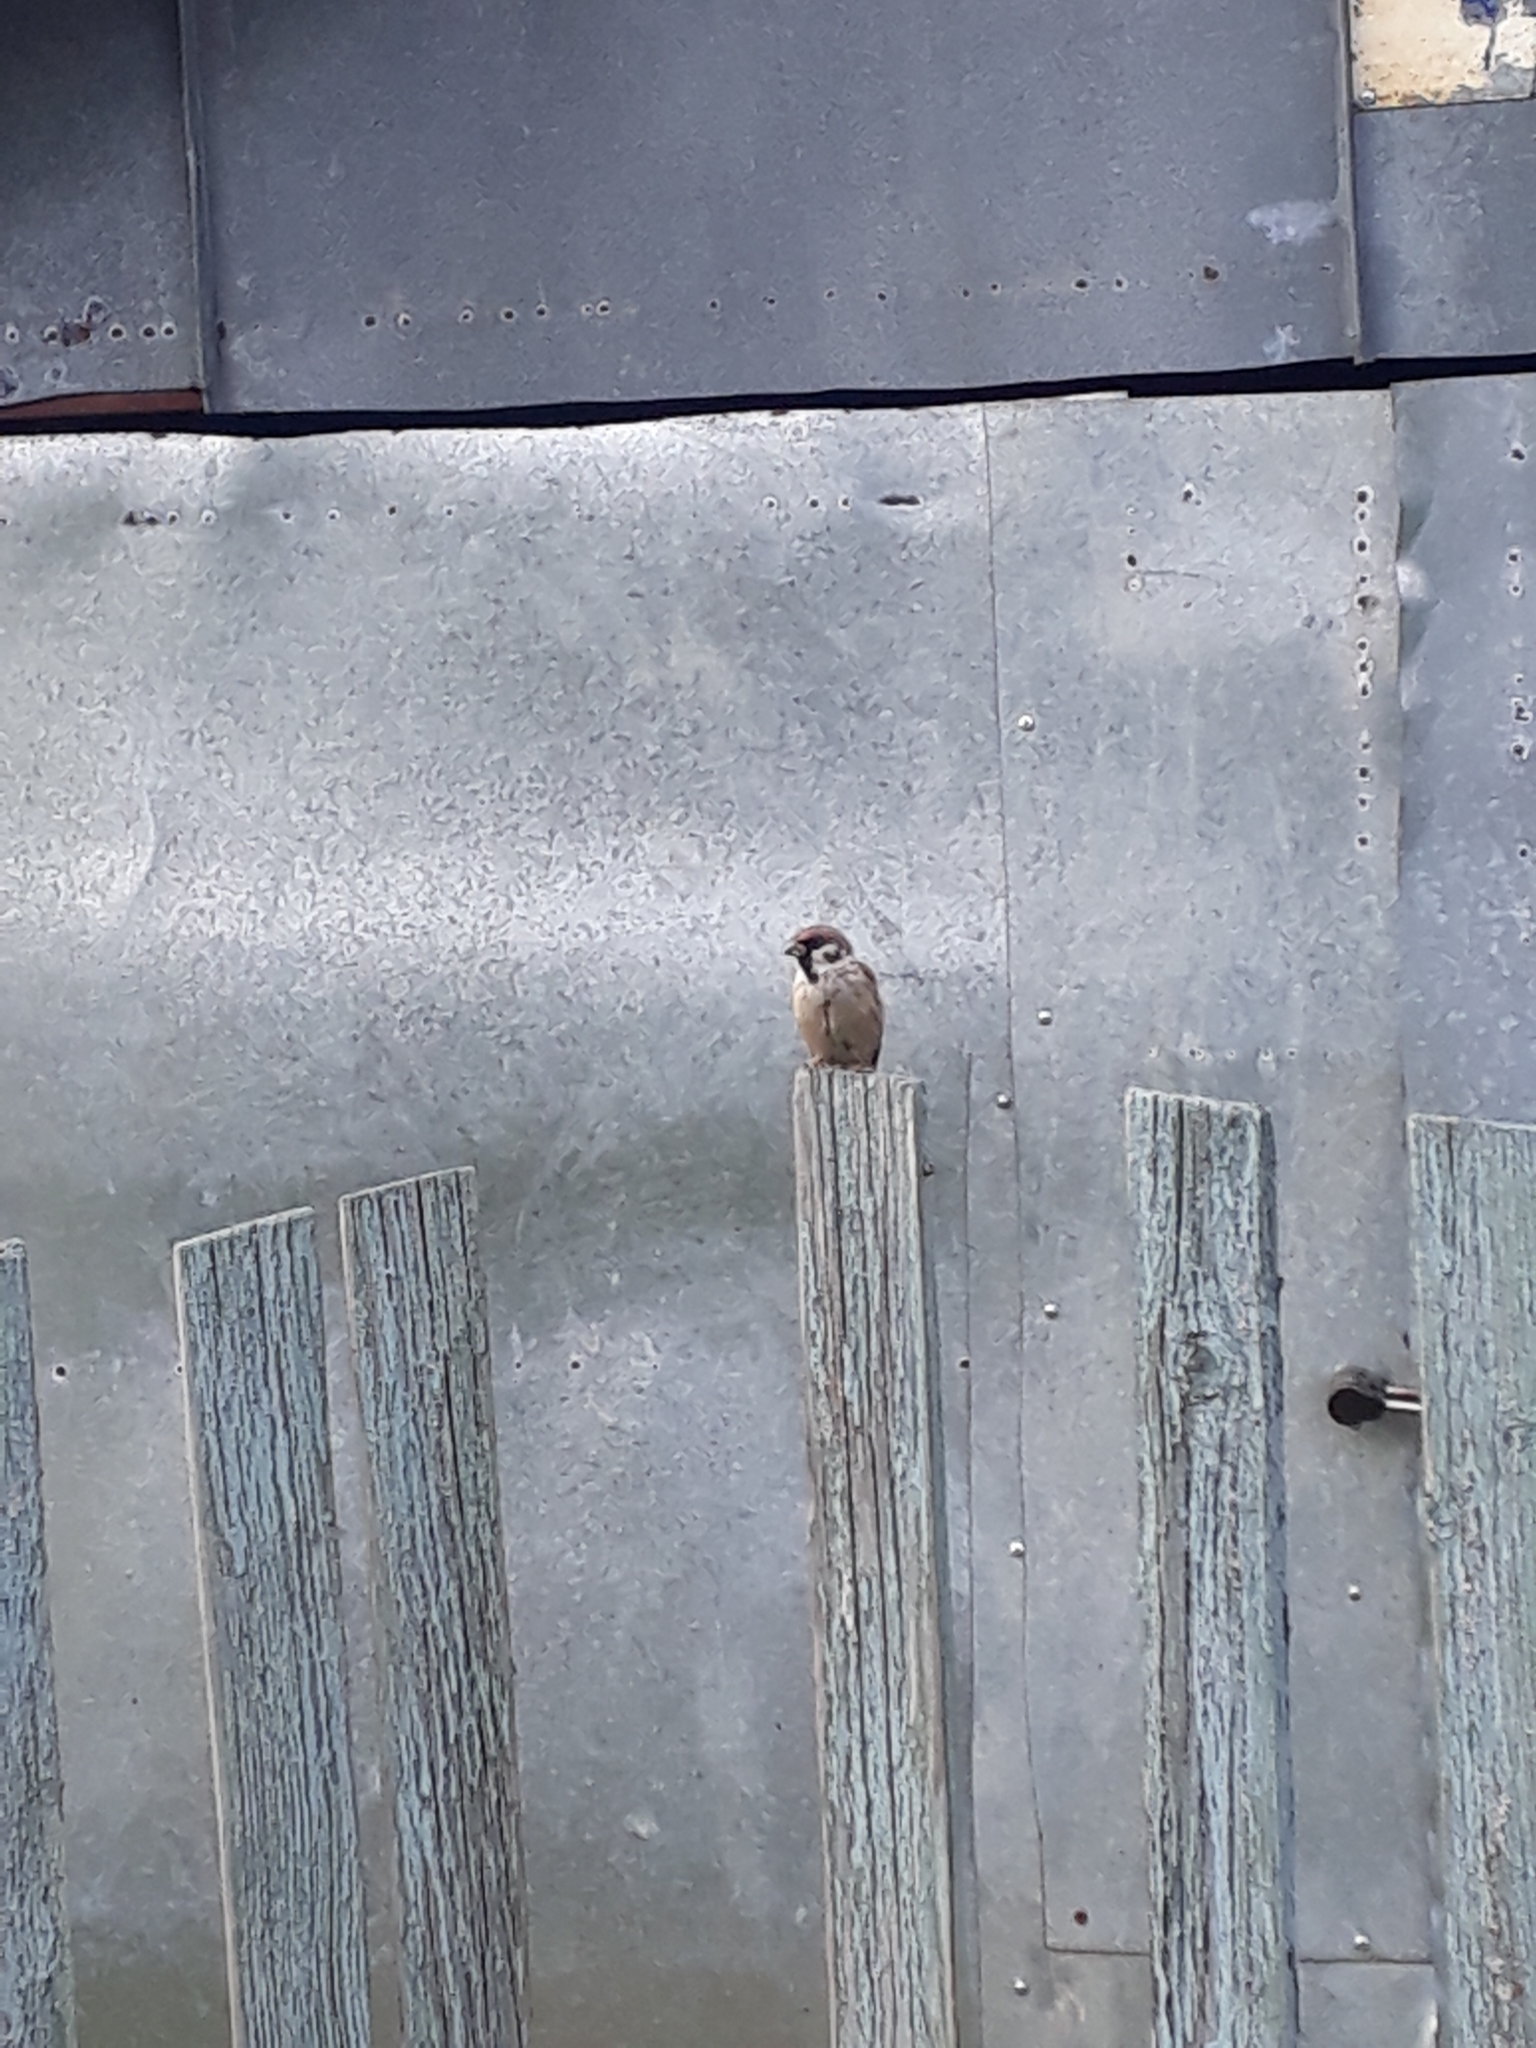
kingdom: Animalia
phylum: Chordata
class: Aves
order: Passeriformes
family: Passeridae
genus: Passer
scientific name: Passer montanus
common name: Eurasian tree sparrow
